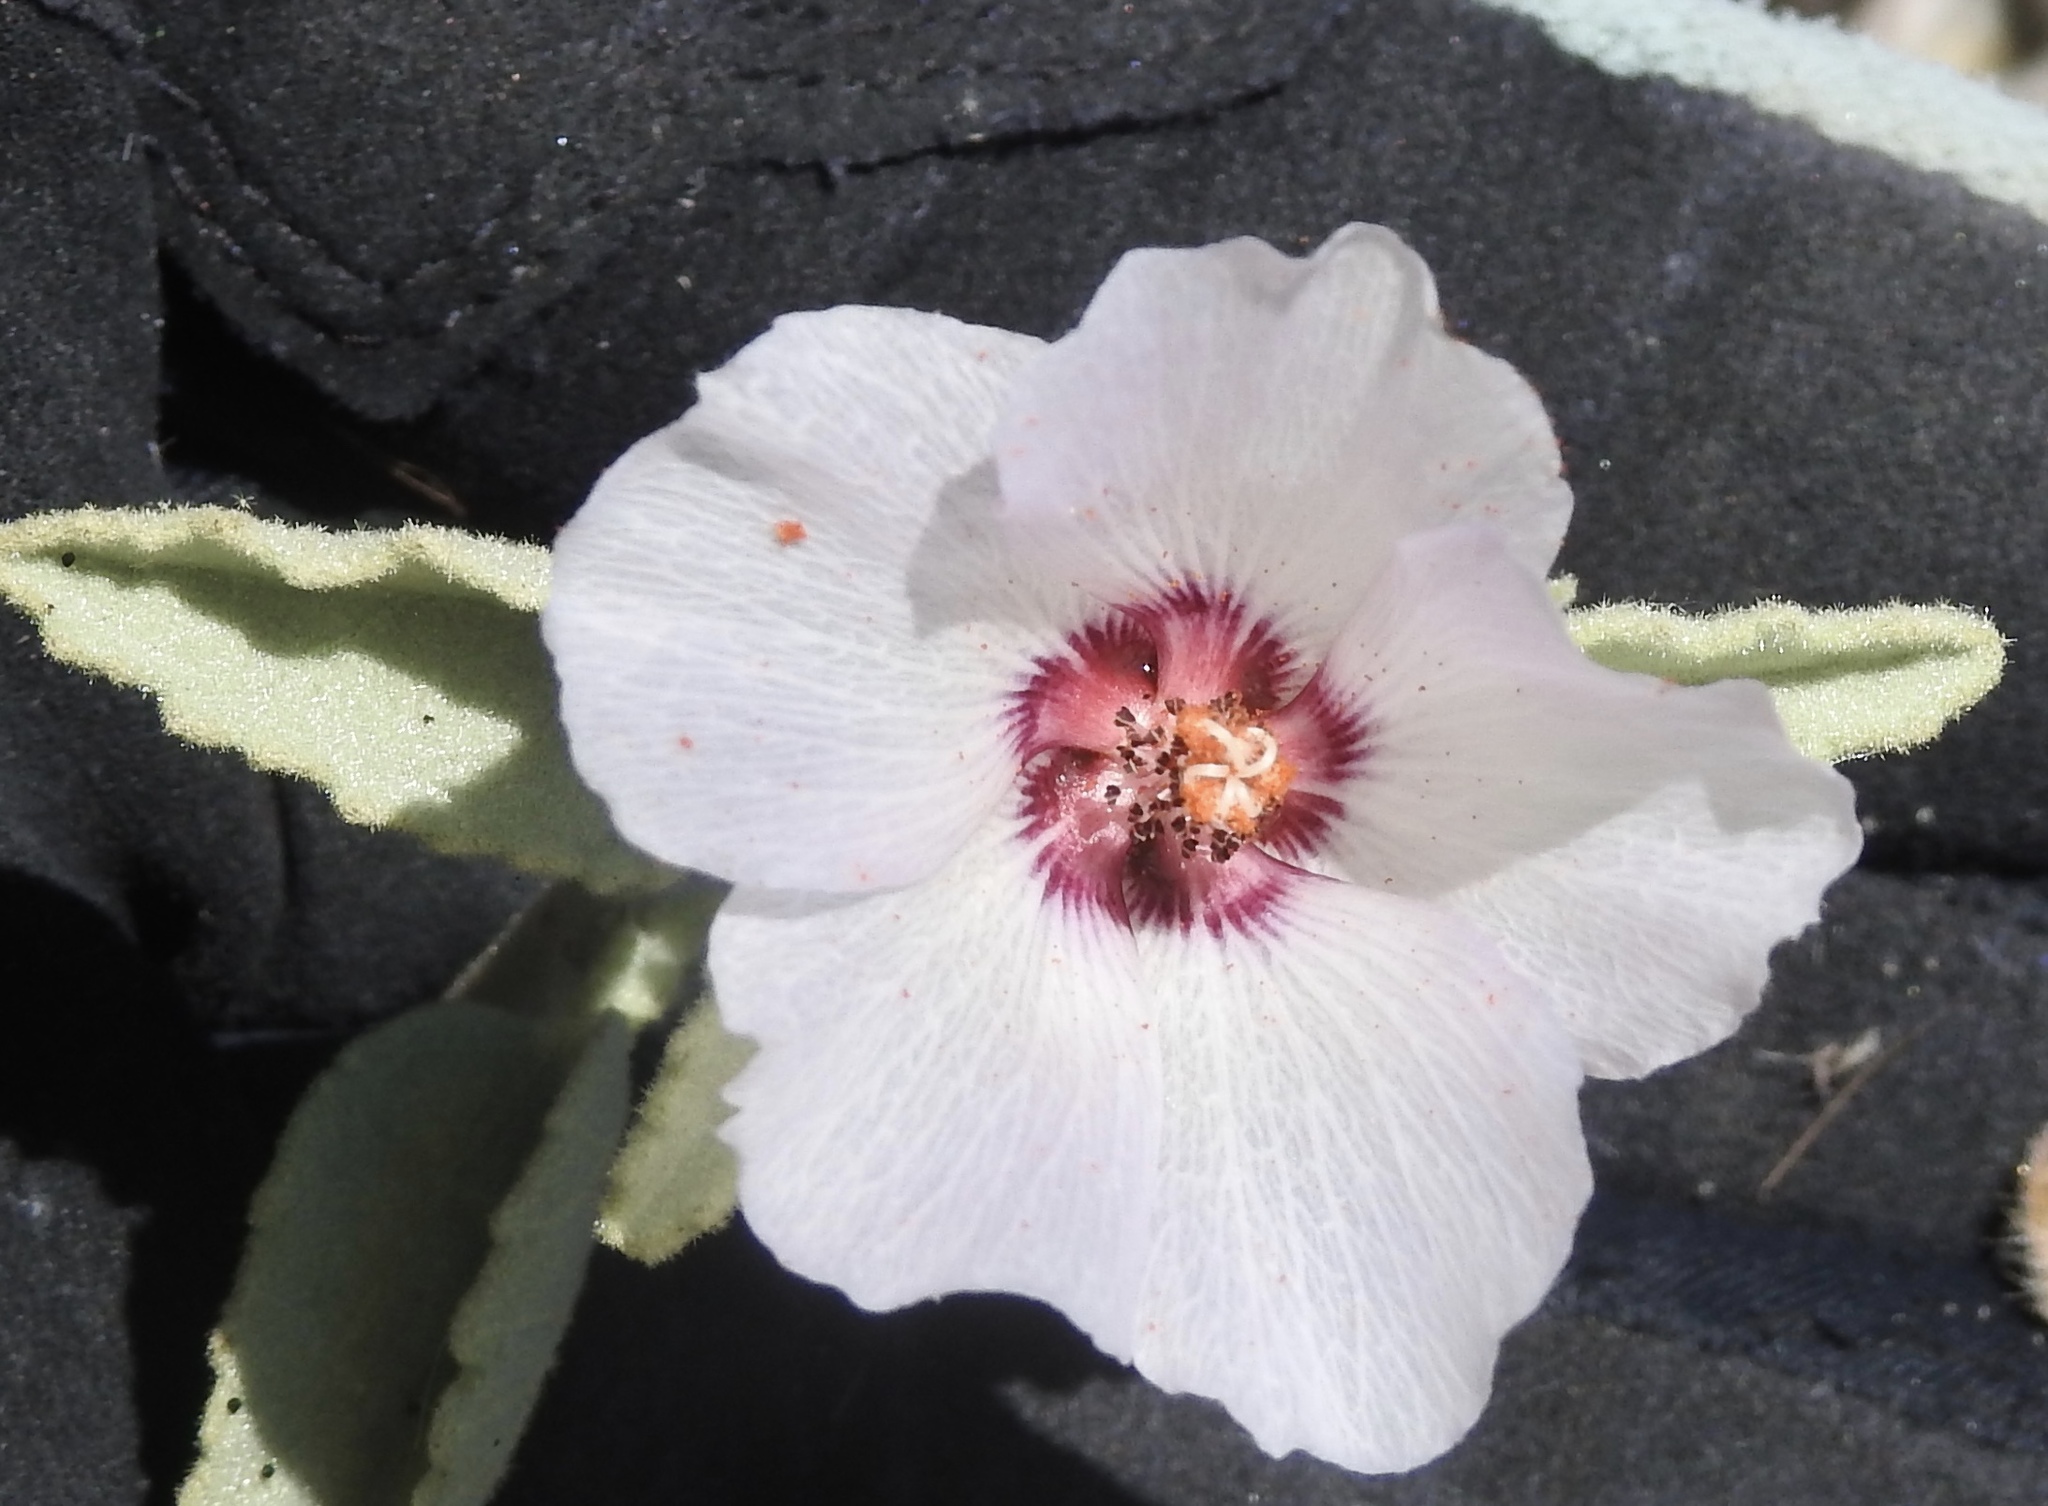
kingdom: Plantae
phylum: Tracheophyta
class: Magnoliopsida
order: Malvales
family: Malvaceae
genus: Hibiscus
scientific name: Hibiscus denudatus
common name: Paleface
